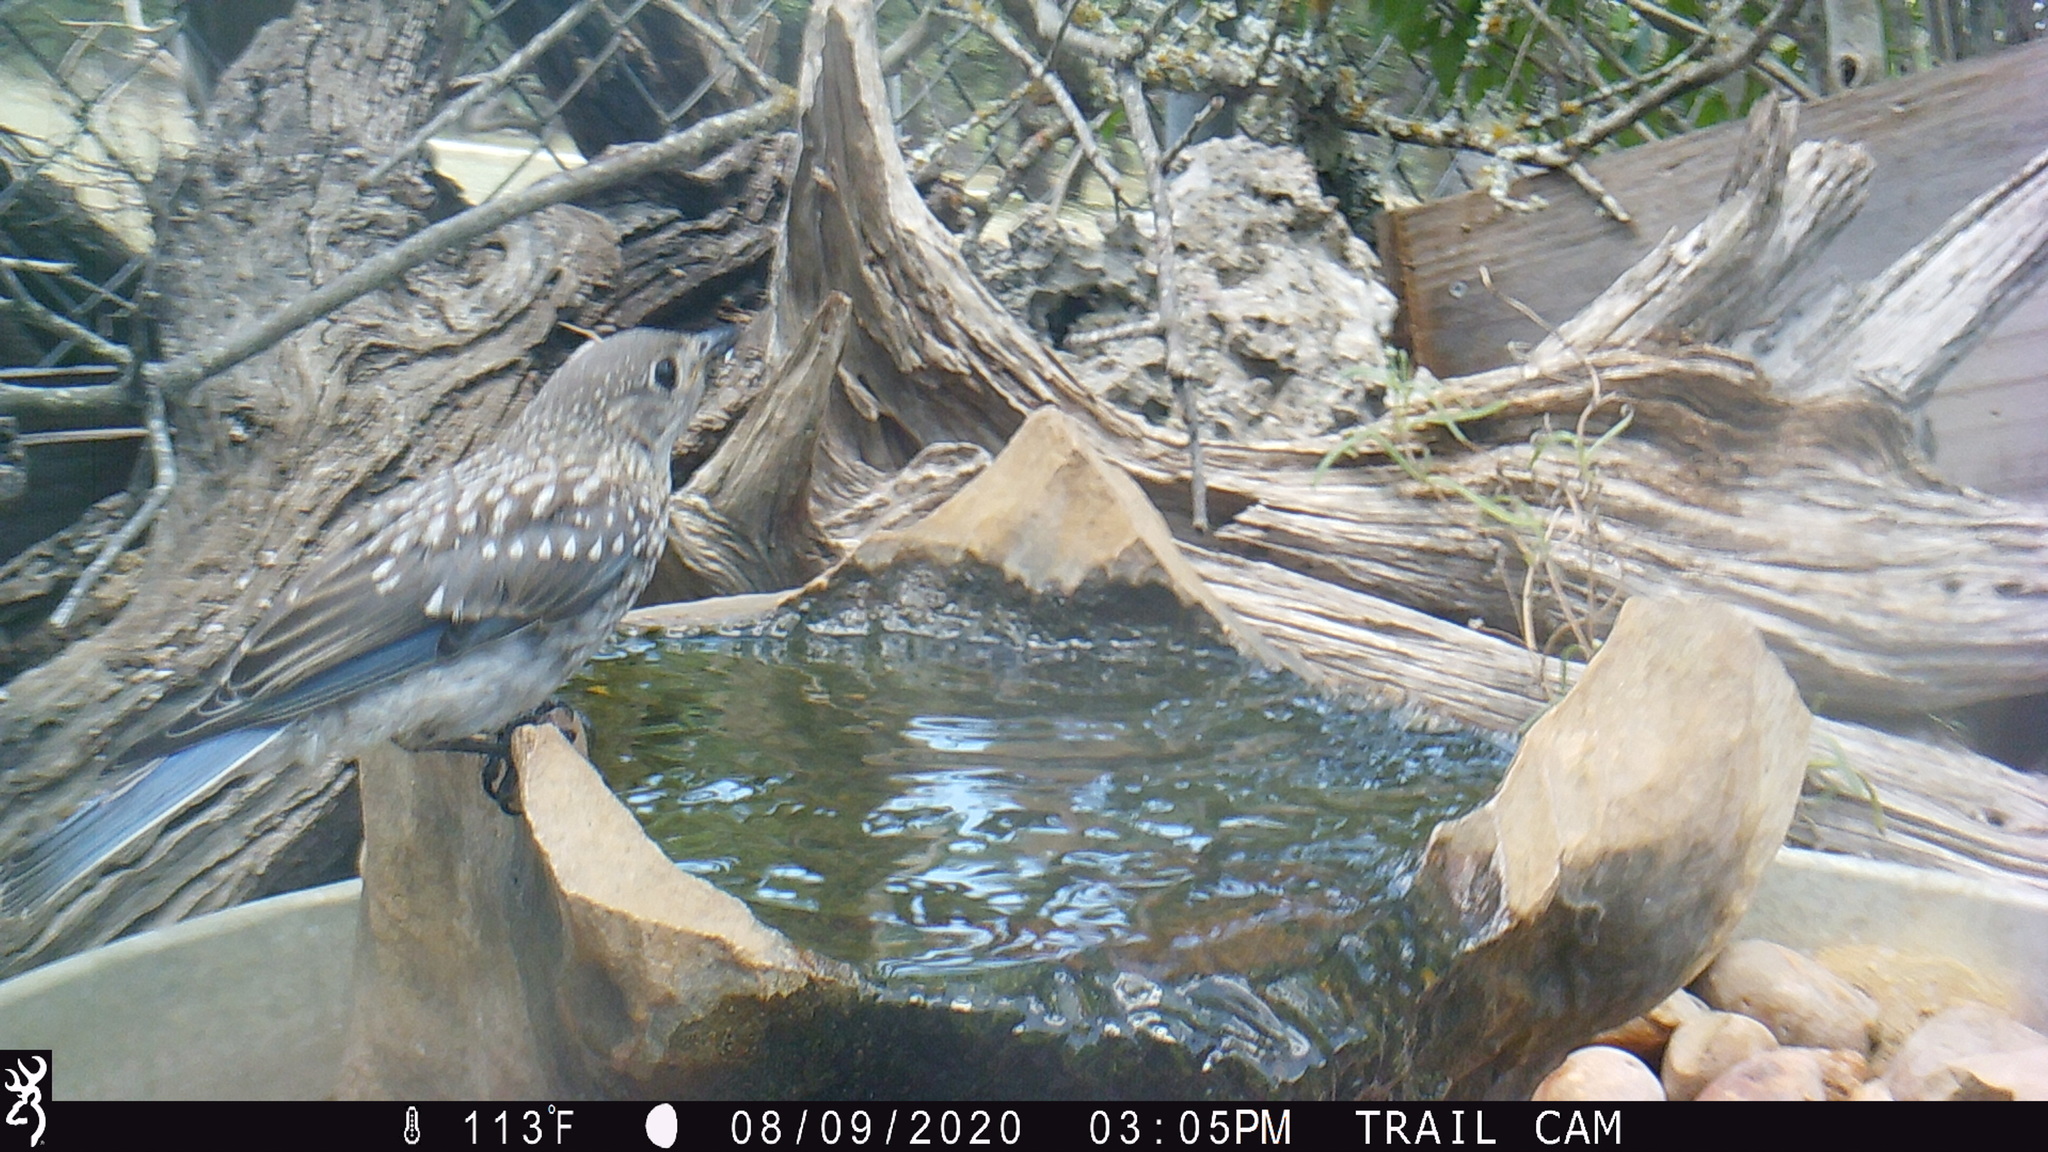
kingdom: Animalia
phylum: Chordata
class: Aves
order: Passeriformes
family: Turdidae
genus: Sialia
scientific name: Sialia sialis
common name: Eastern bluebird
